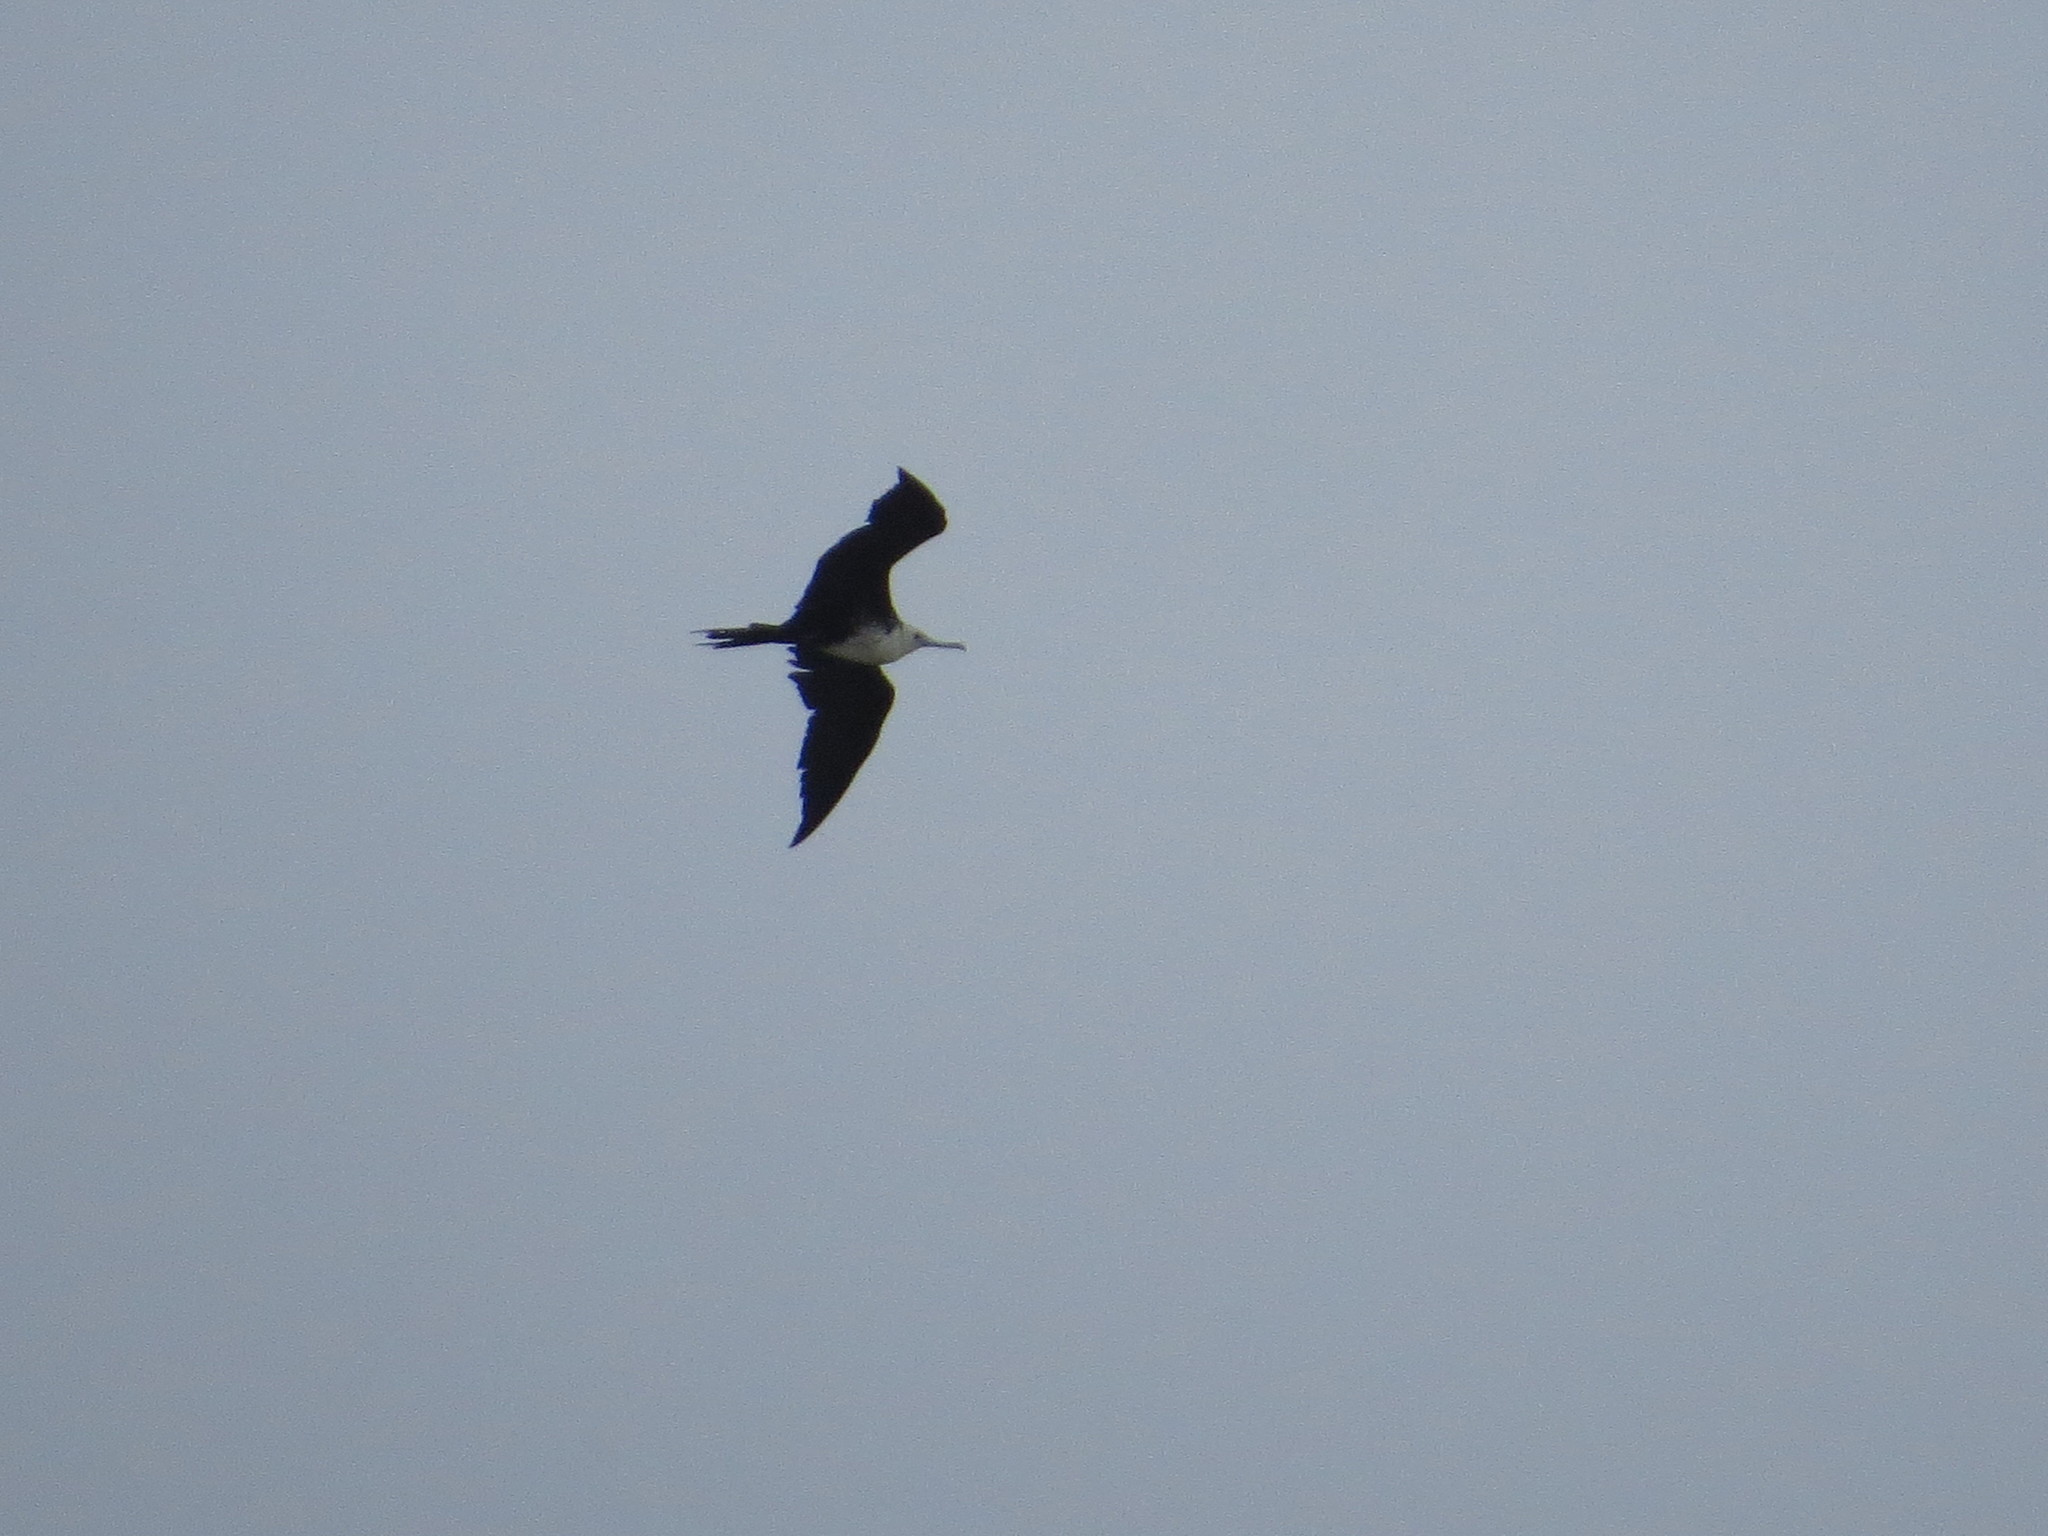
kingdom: Animalia
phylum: Chordata
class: Aves
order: Suliformes
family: Fregatidae
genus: Fregata
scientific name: Fregata magnificens
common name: Magnificent frigatebird
